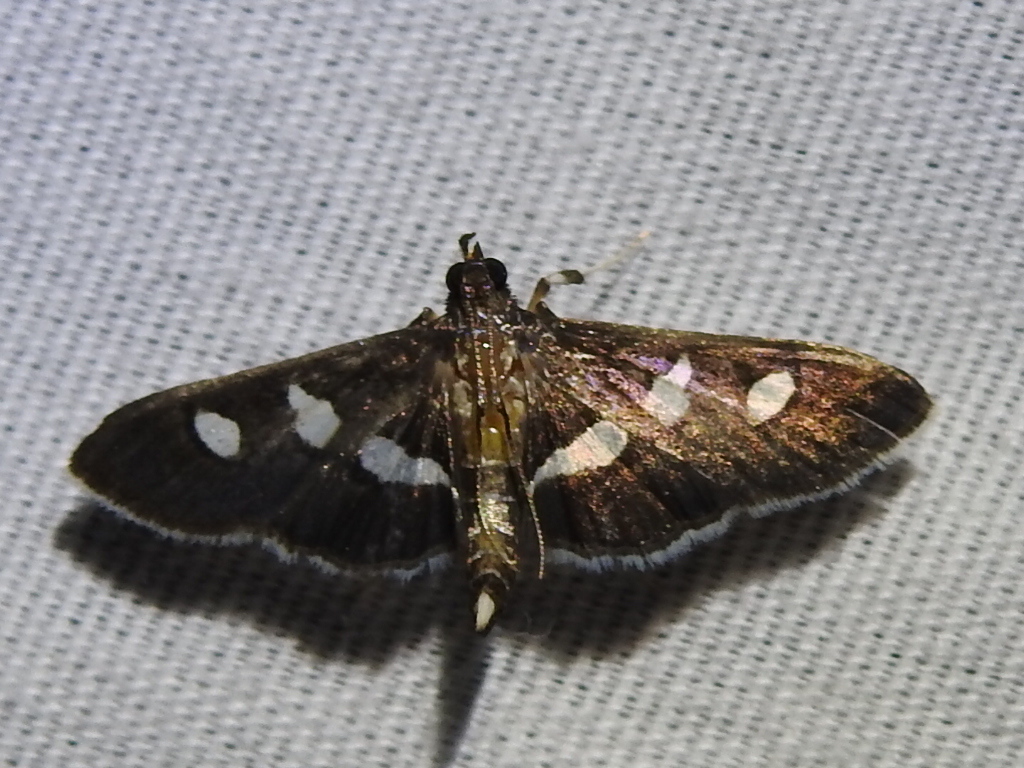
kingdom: Animalia
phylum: Arthropoda
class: Insecta
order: Lepidoptera
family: Crambidae
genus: Desmia
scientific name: Desmia funeralis
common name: Grape leaf folder moth
